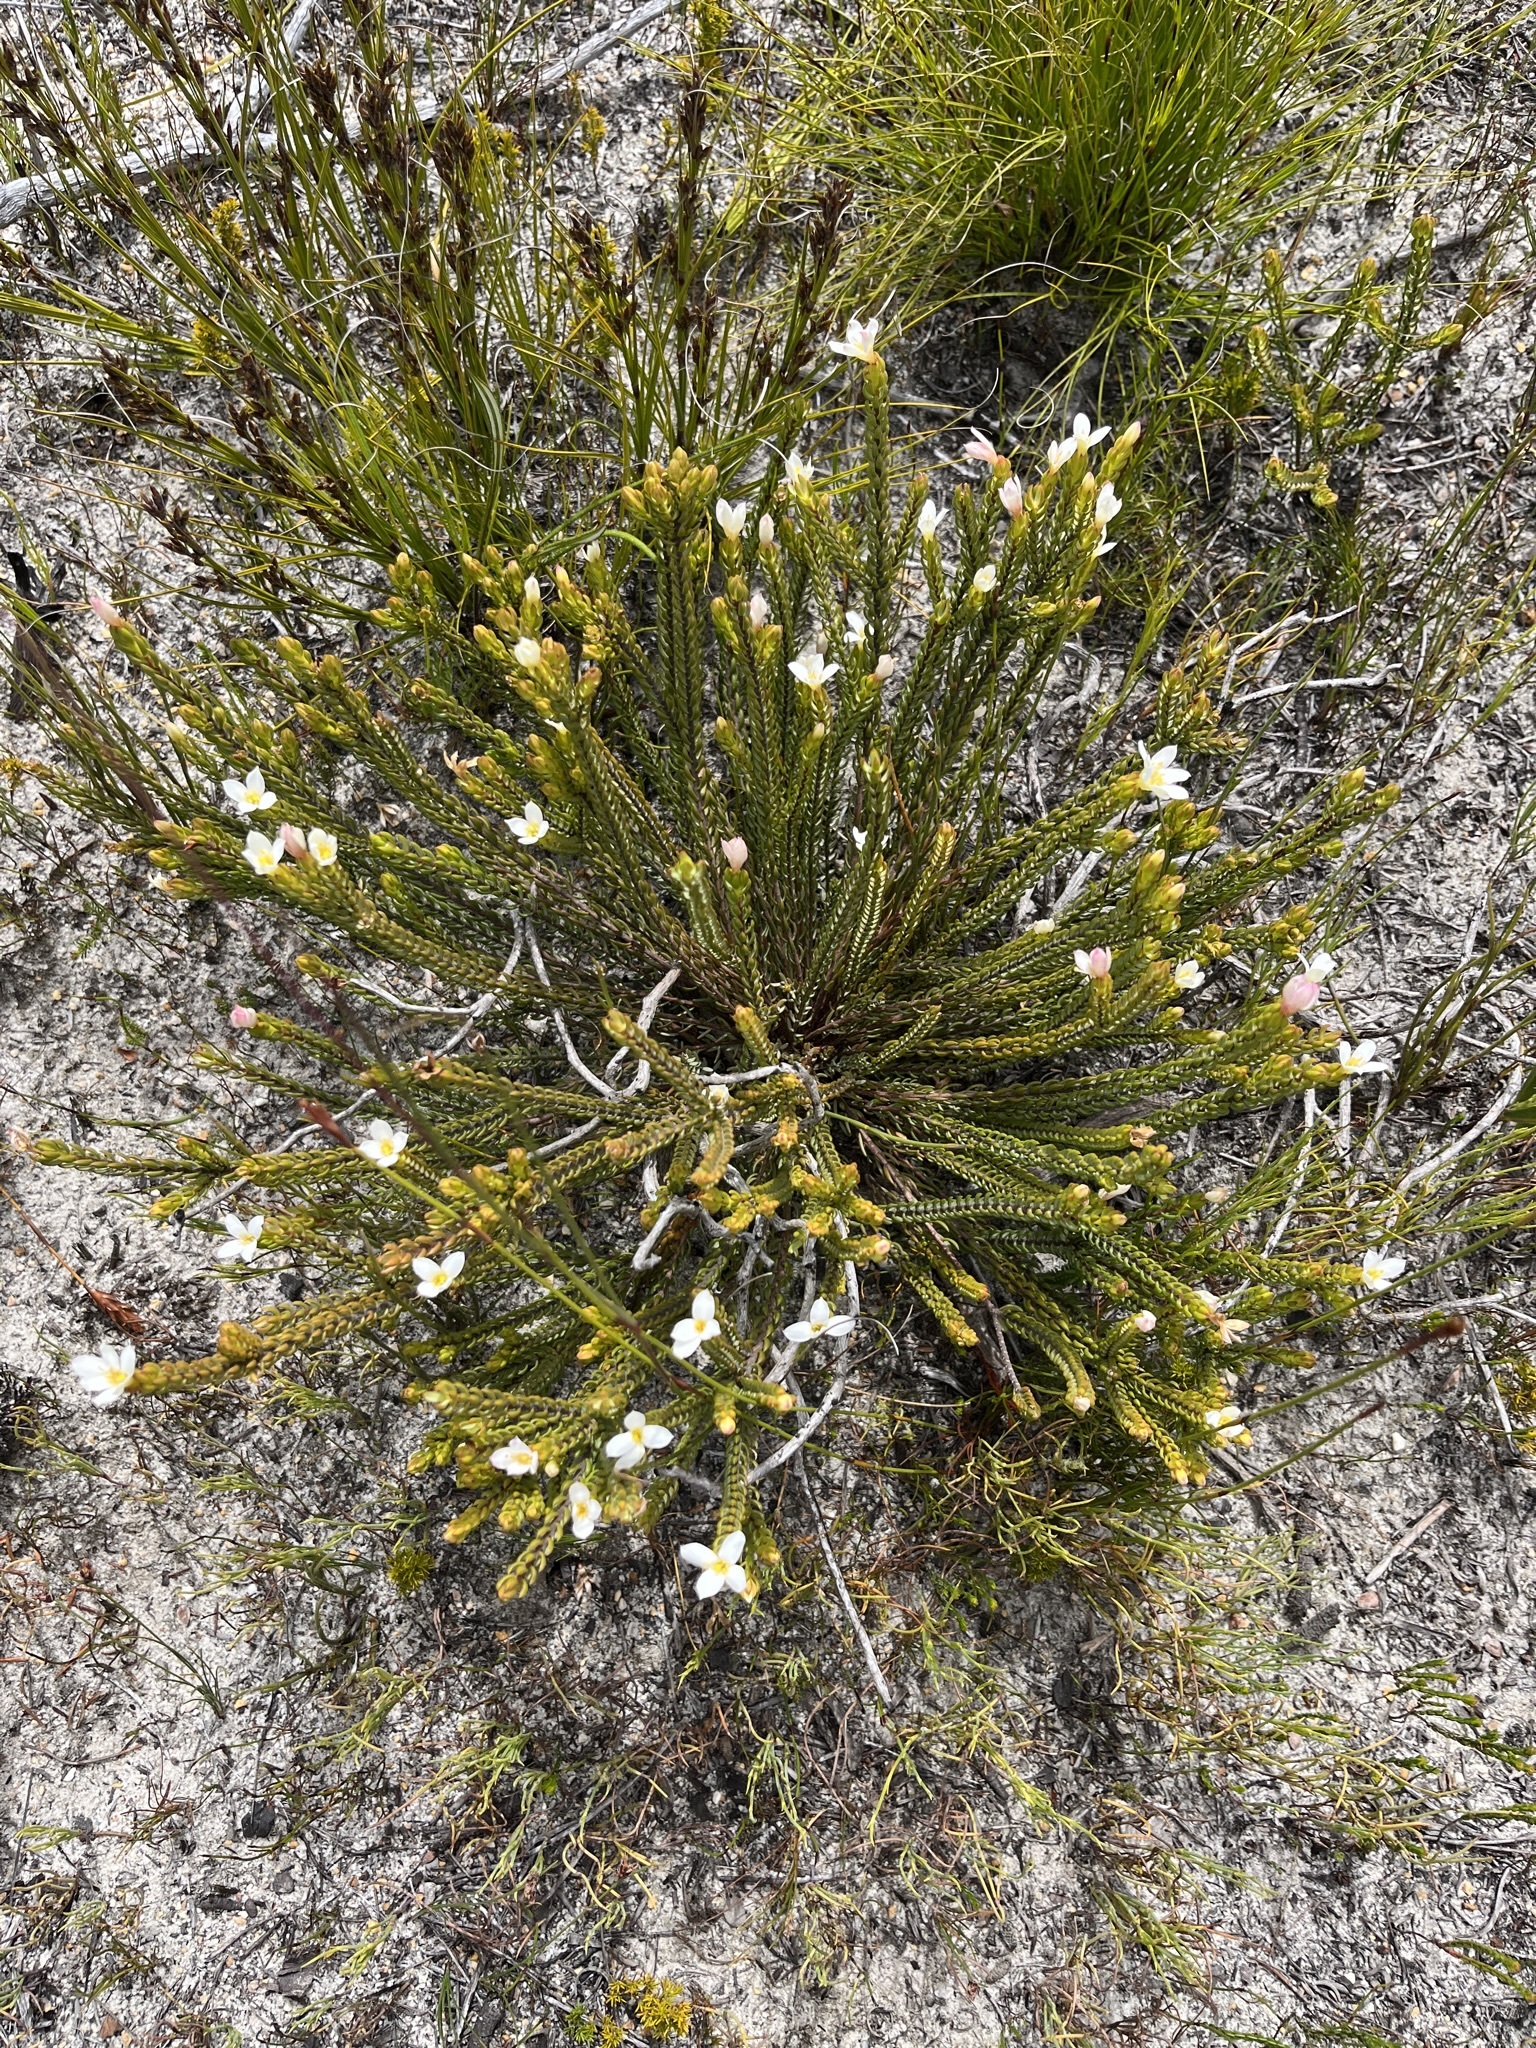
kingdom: Plantae
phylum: Tracheophyta
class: Magnoliopsida
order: Malvales
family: Thymelaeaceae
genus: Lachnaea
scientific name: Lachnaea grandiflora
